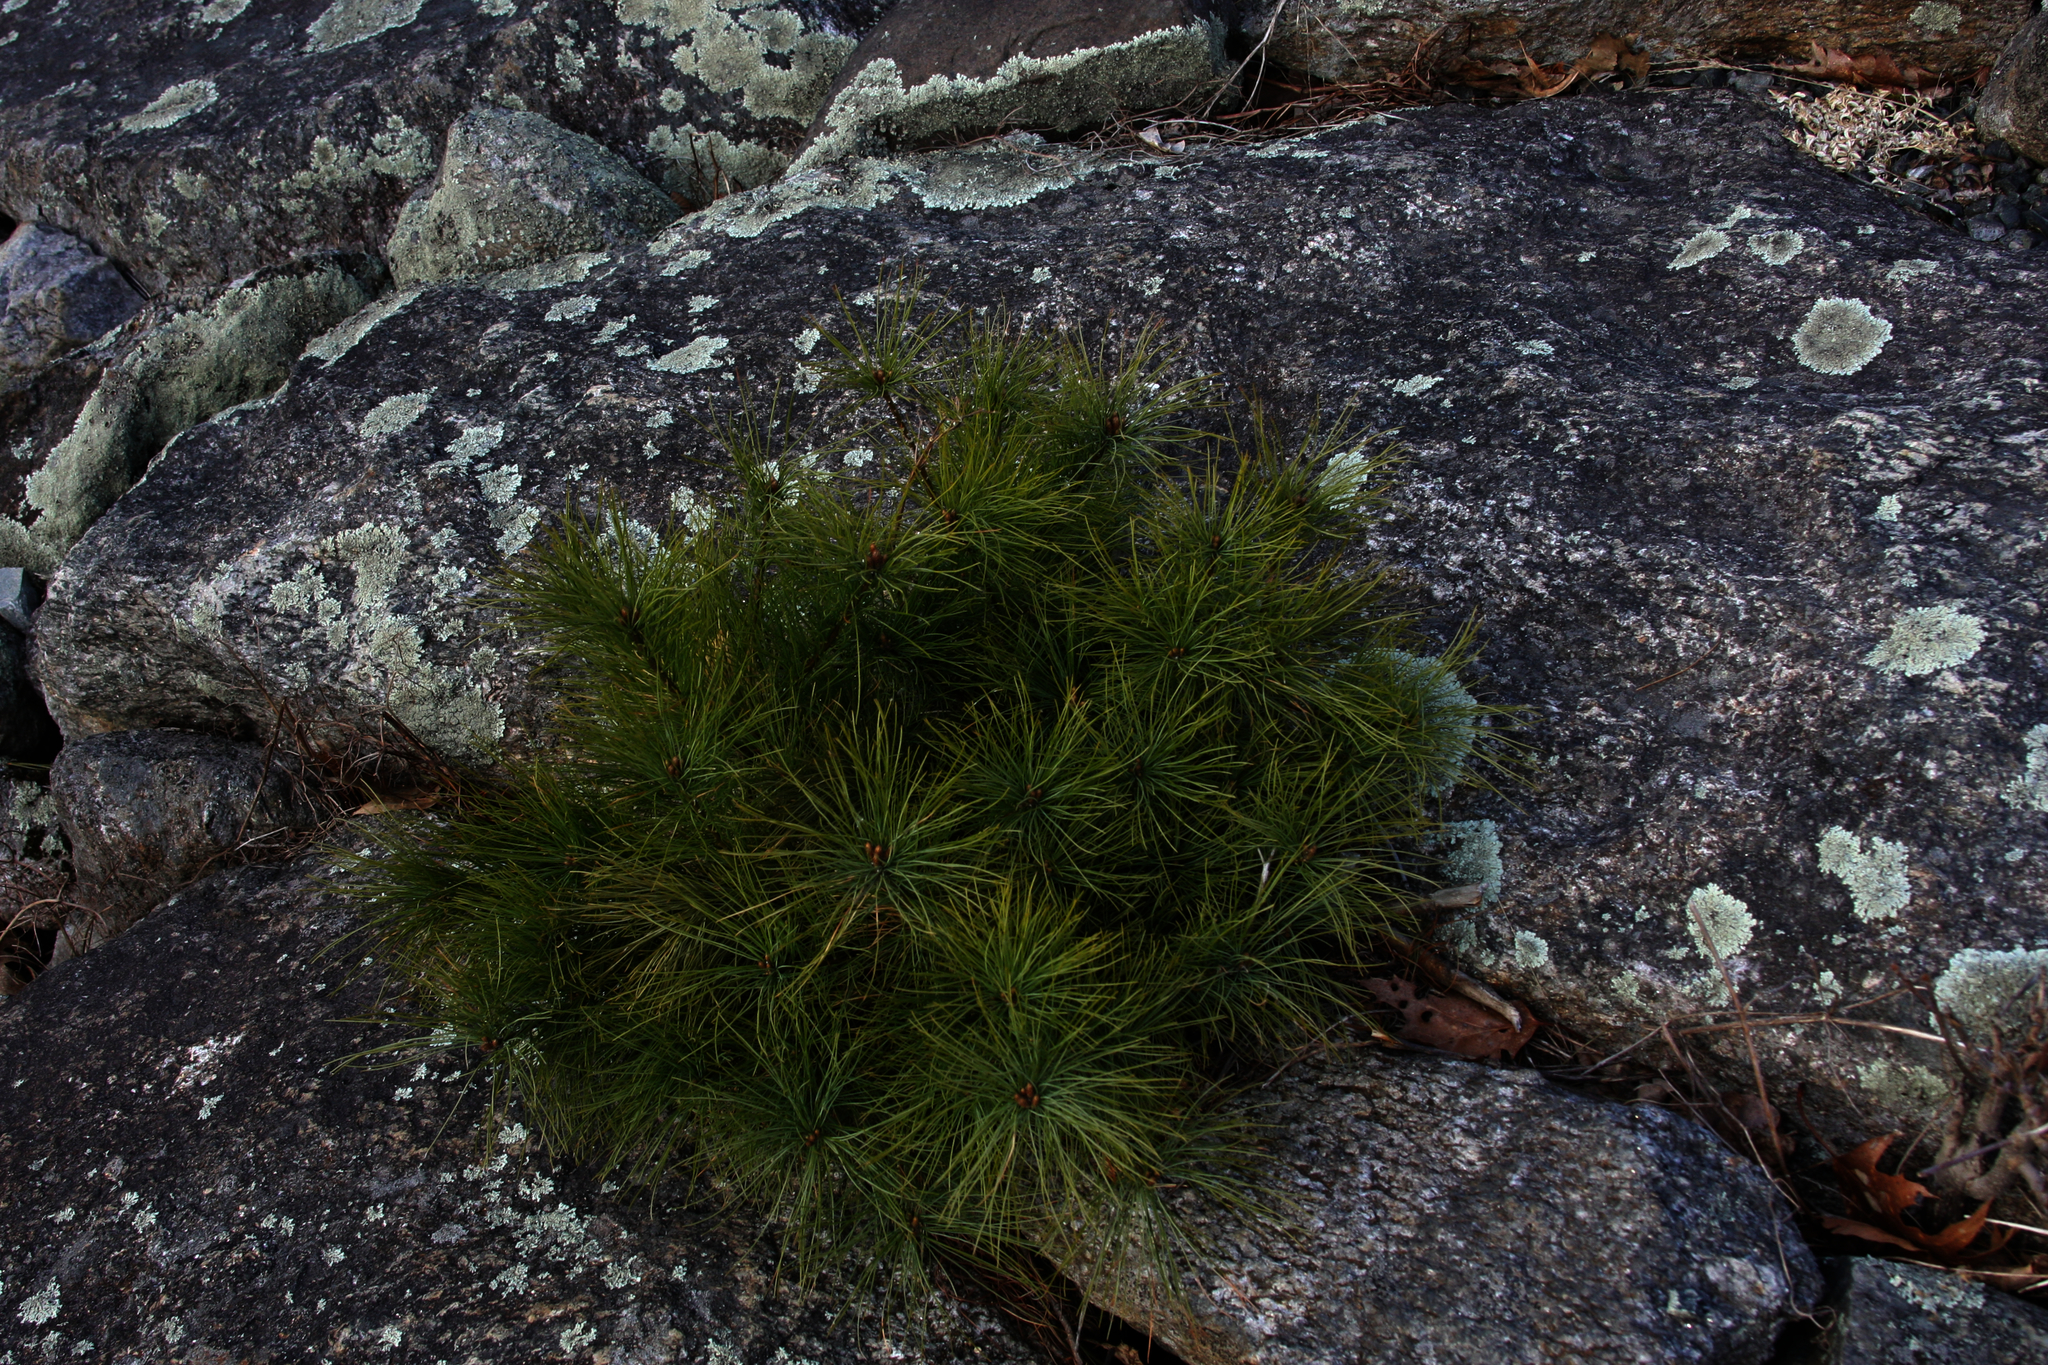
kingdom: Plantae
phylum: Tracheophyta
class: Pinopsida
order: Pinales
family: Pinaceae
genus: Pinus
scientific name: Pinus strobus
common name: Weymouth pine
